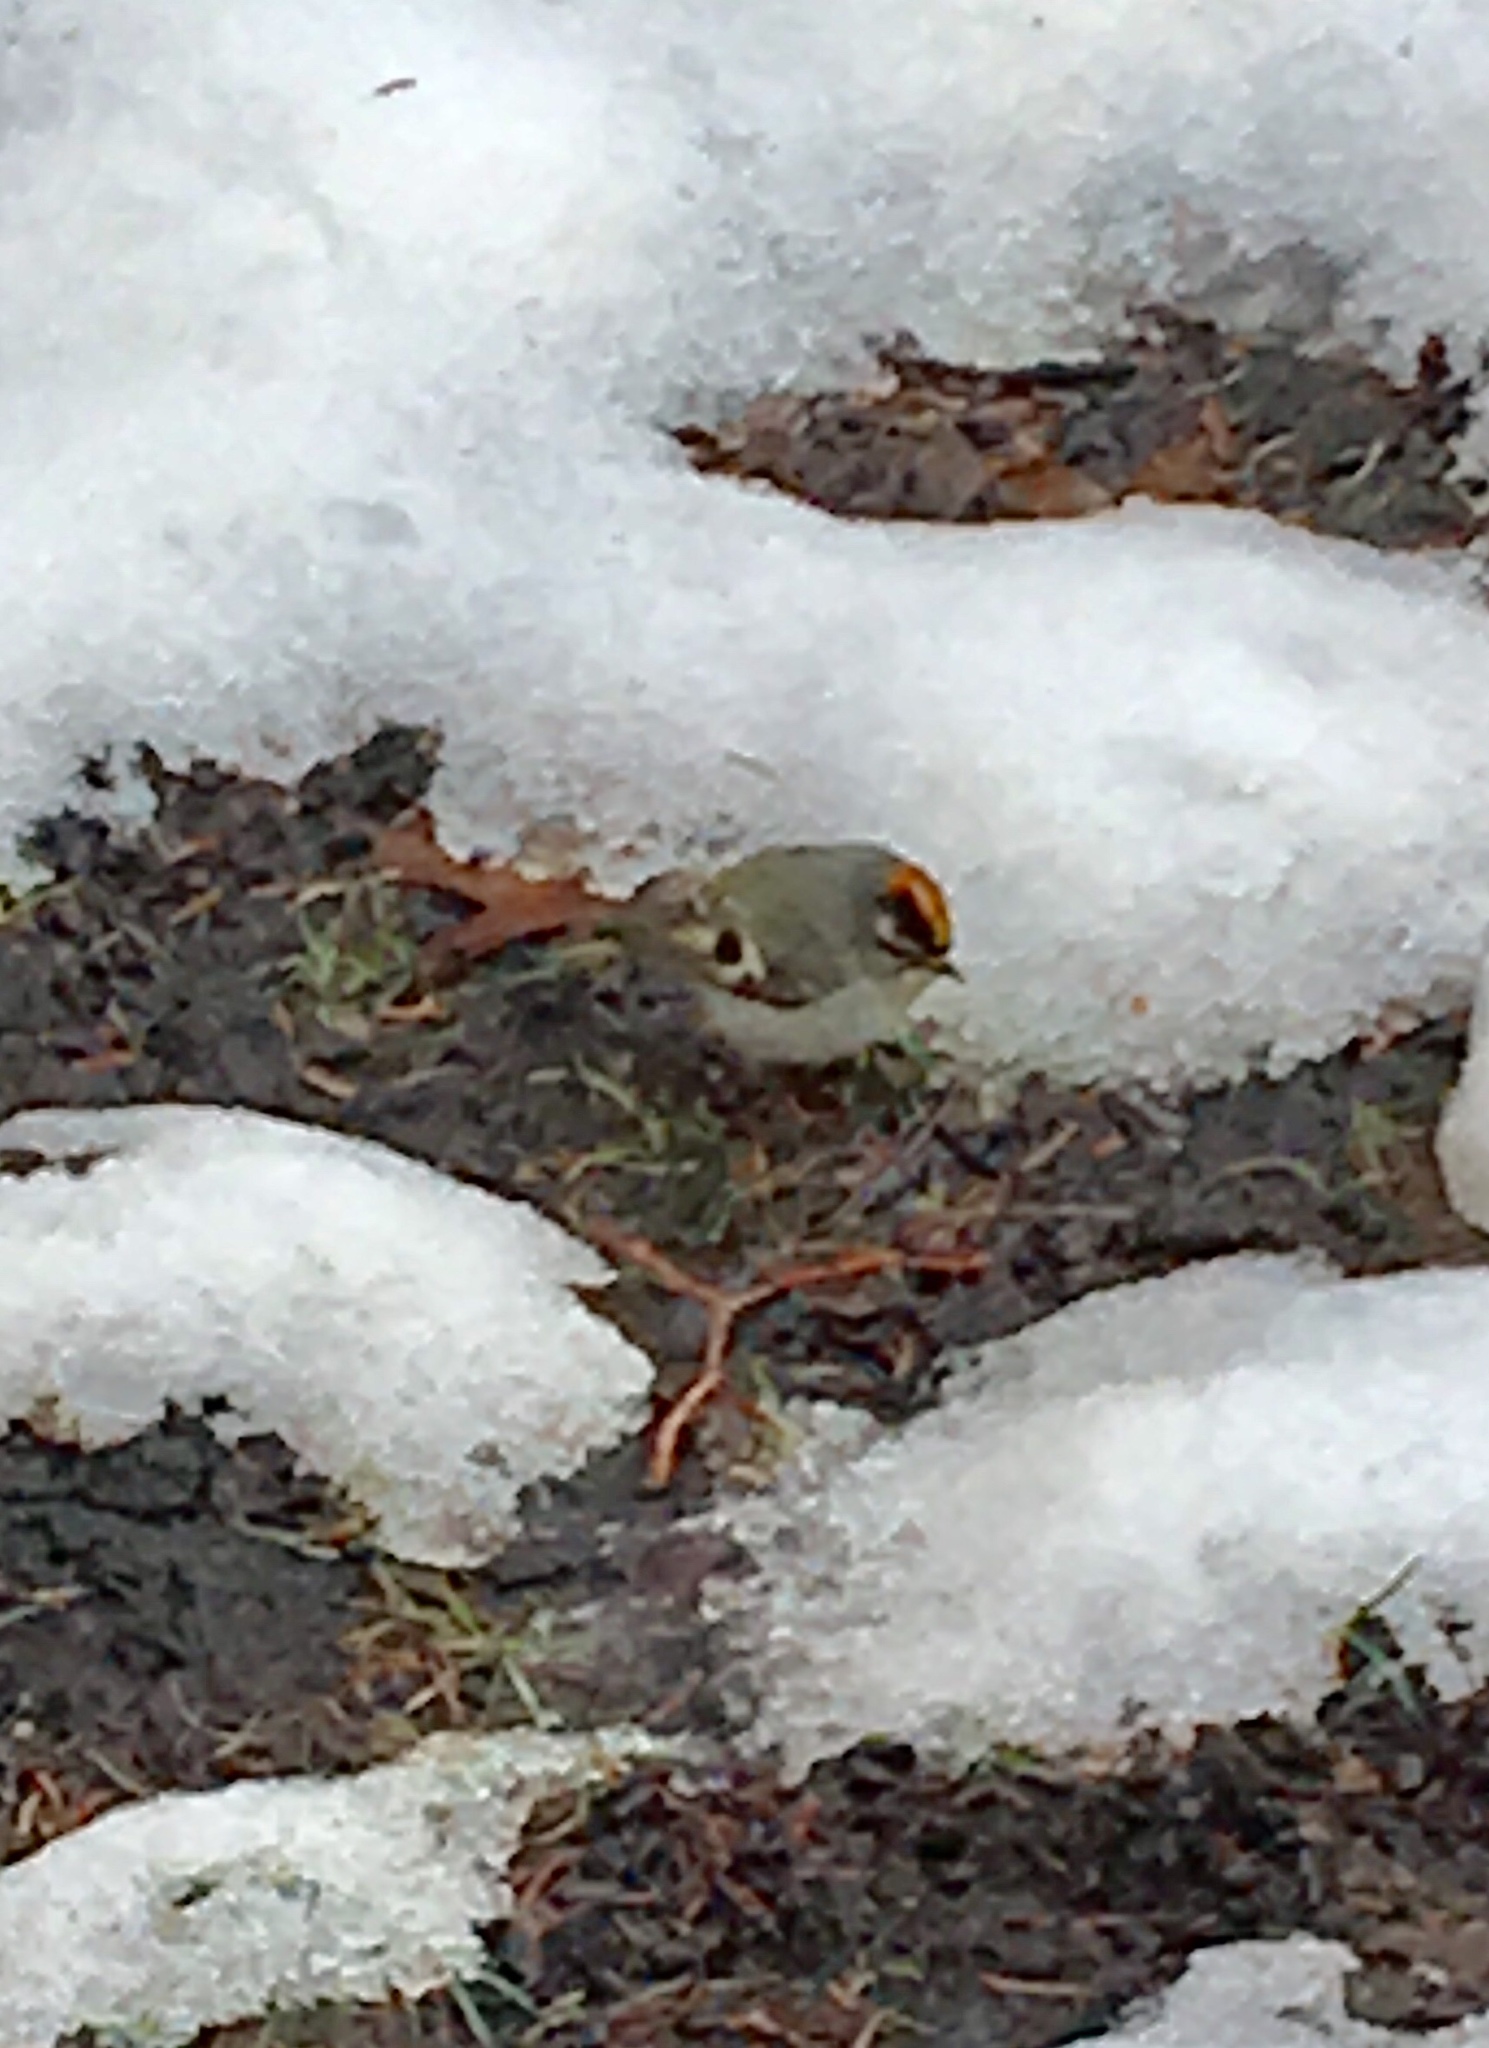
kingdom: Animalia
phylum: Chordata
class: Aves
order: Passeriformes
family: Regulidae
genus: Regulus
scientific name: Regulus satrapa
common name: Golden-crowned kinglet
